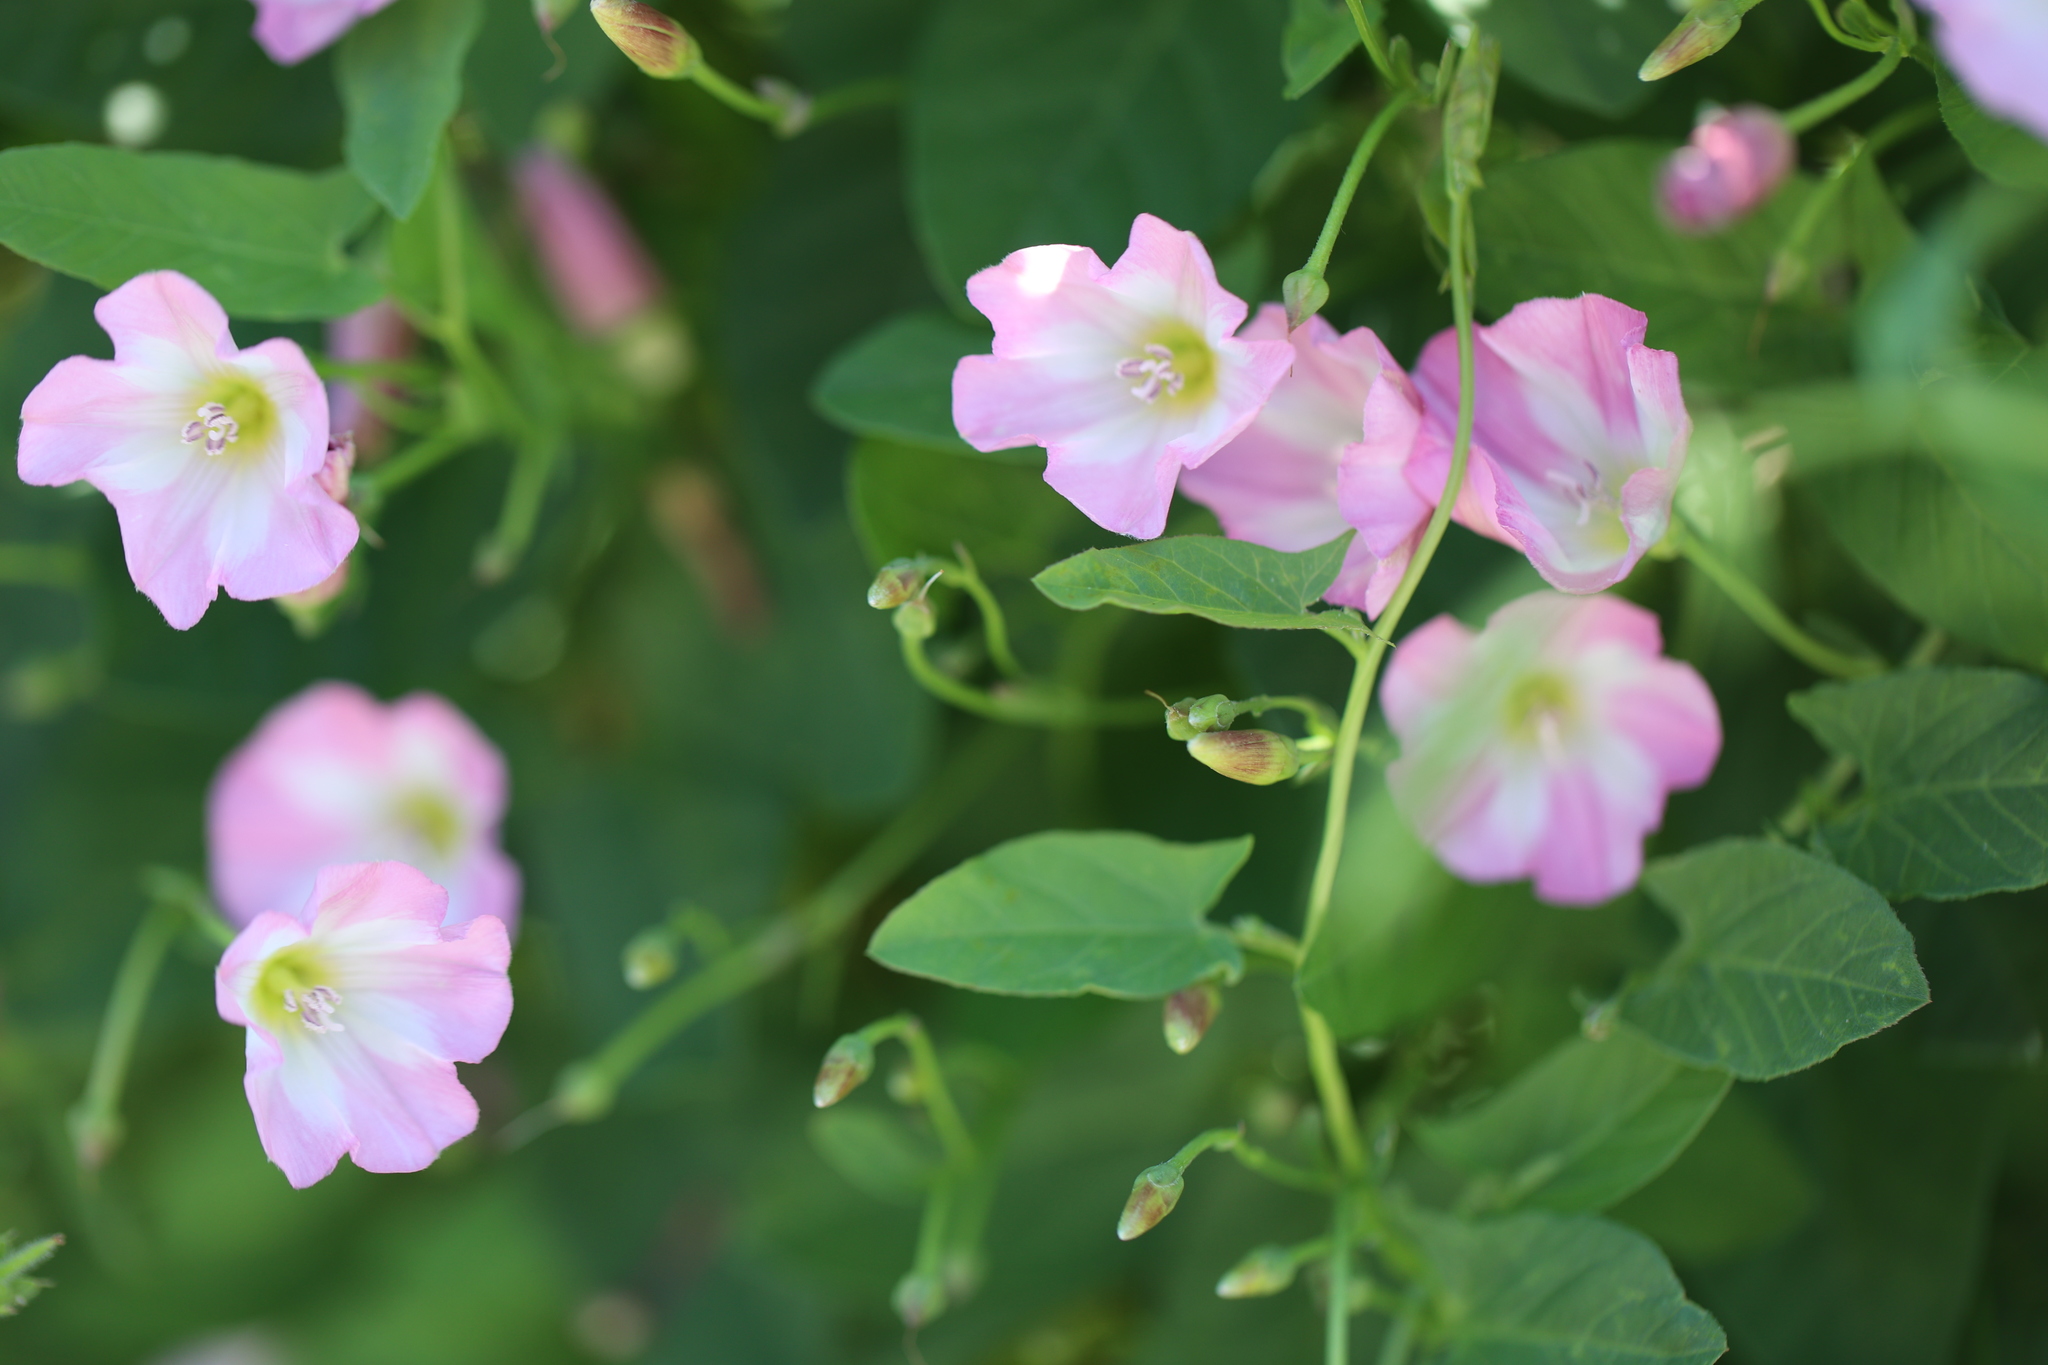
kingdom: Plantae
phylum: Tracheophyta
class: Magnoliopsida
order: Solanales
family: Convolvulaceae
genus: Convolvulus
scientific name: Convolvulus arvensis
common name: Field bindweed
